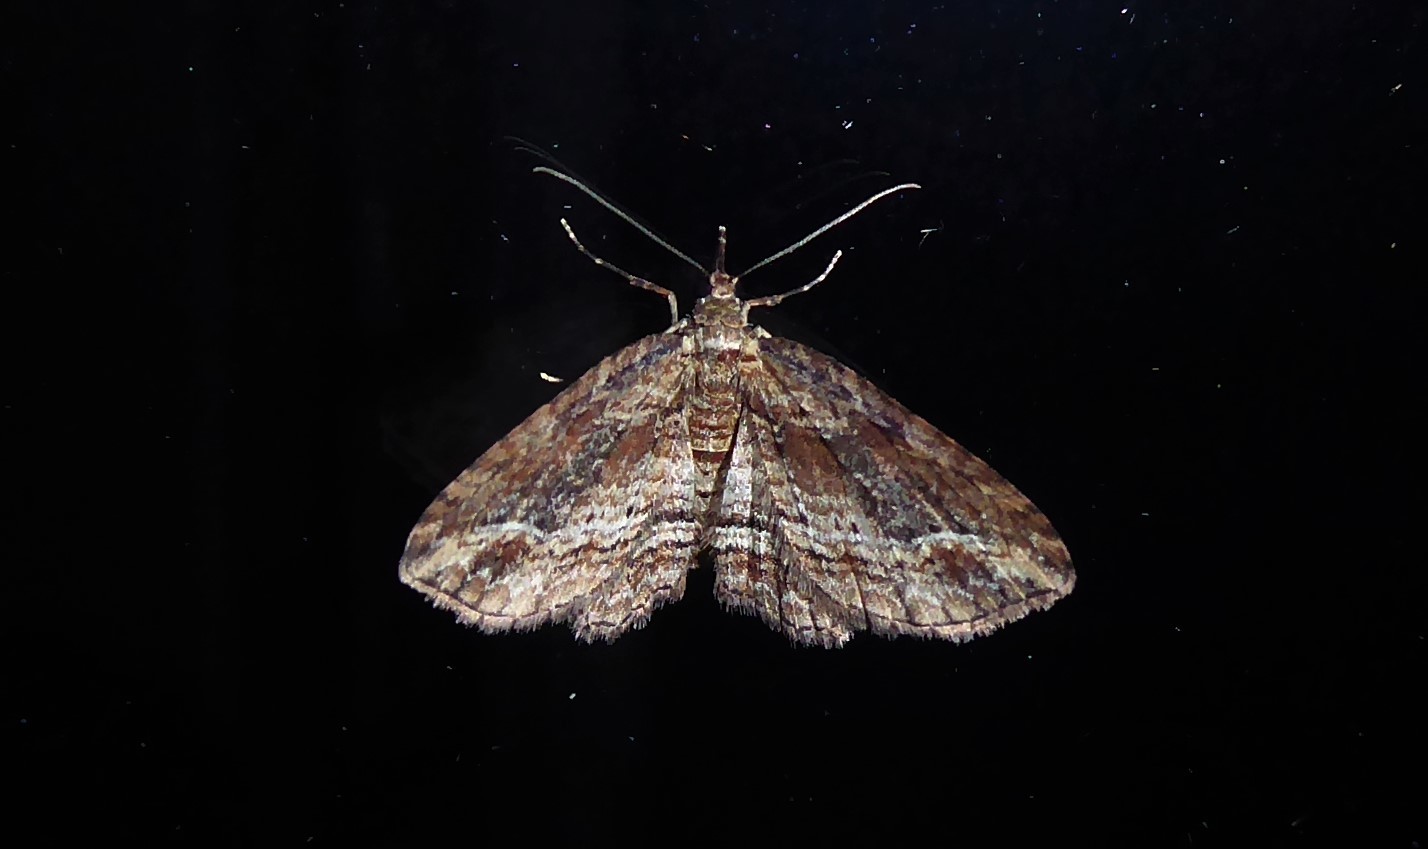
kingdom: Animalia
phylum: Arthropoda
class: Insecta
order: Lepidoptera
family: Geometridae
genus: Chloroclystis
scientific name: Chloroclystis filata
